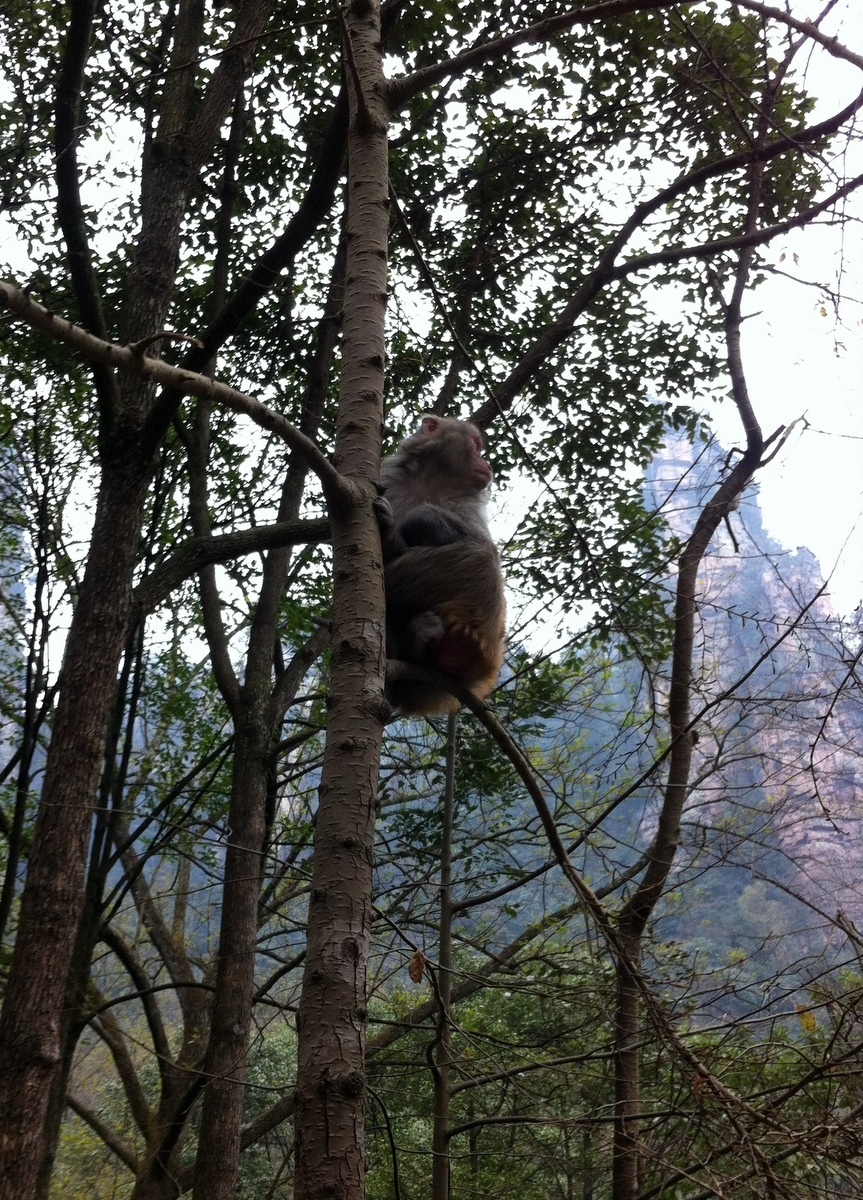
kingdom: Animalia
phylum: Chordata
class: Mammalia
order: Primates
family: Cercopithecidae
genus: Macaca
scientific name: Macaca mulatta
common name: Rhesus monkey
